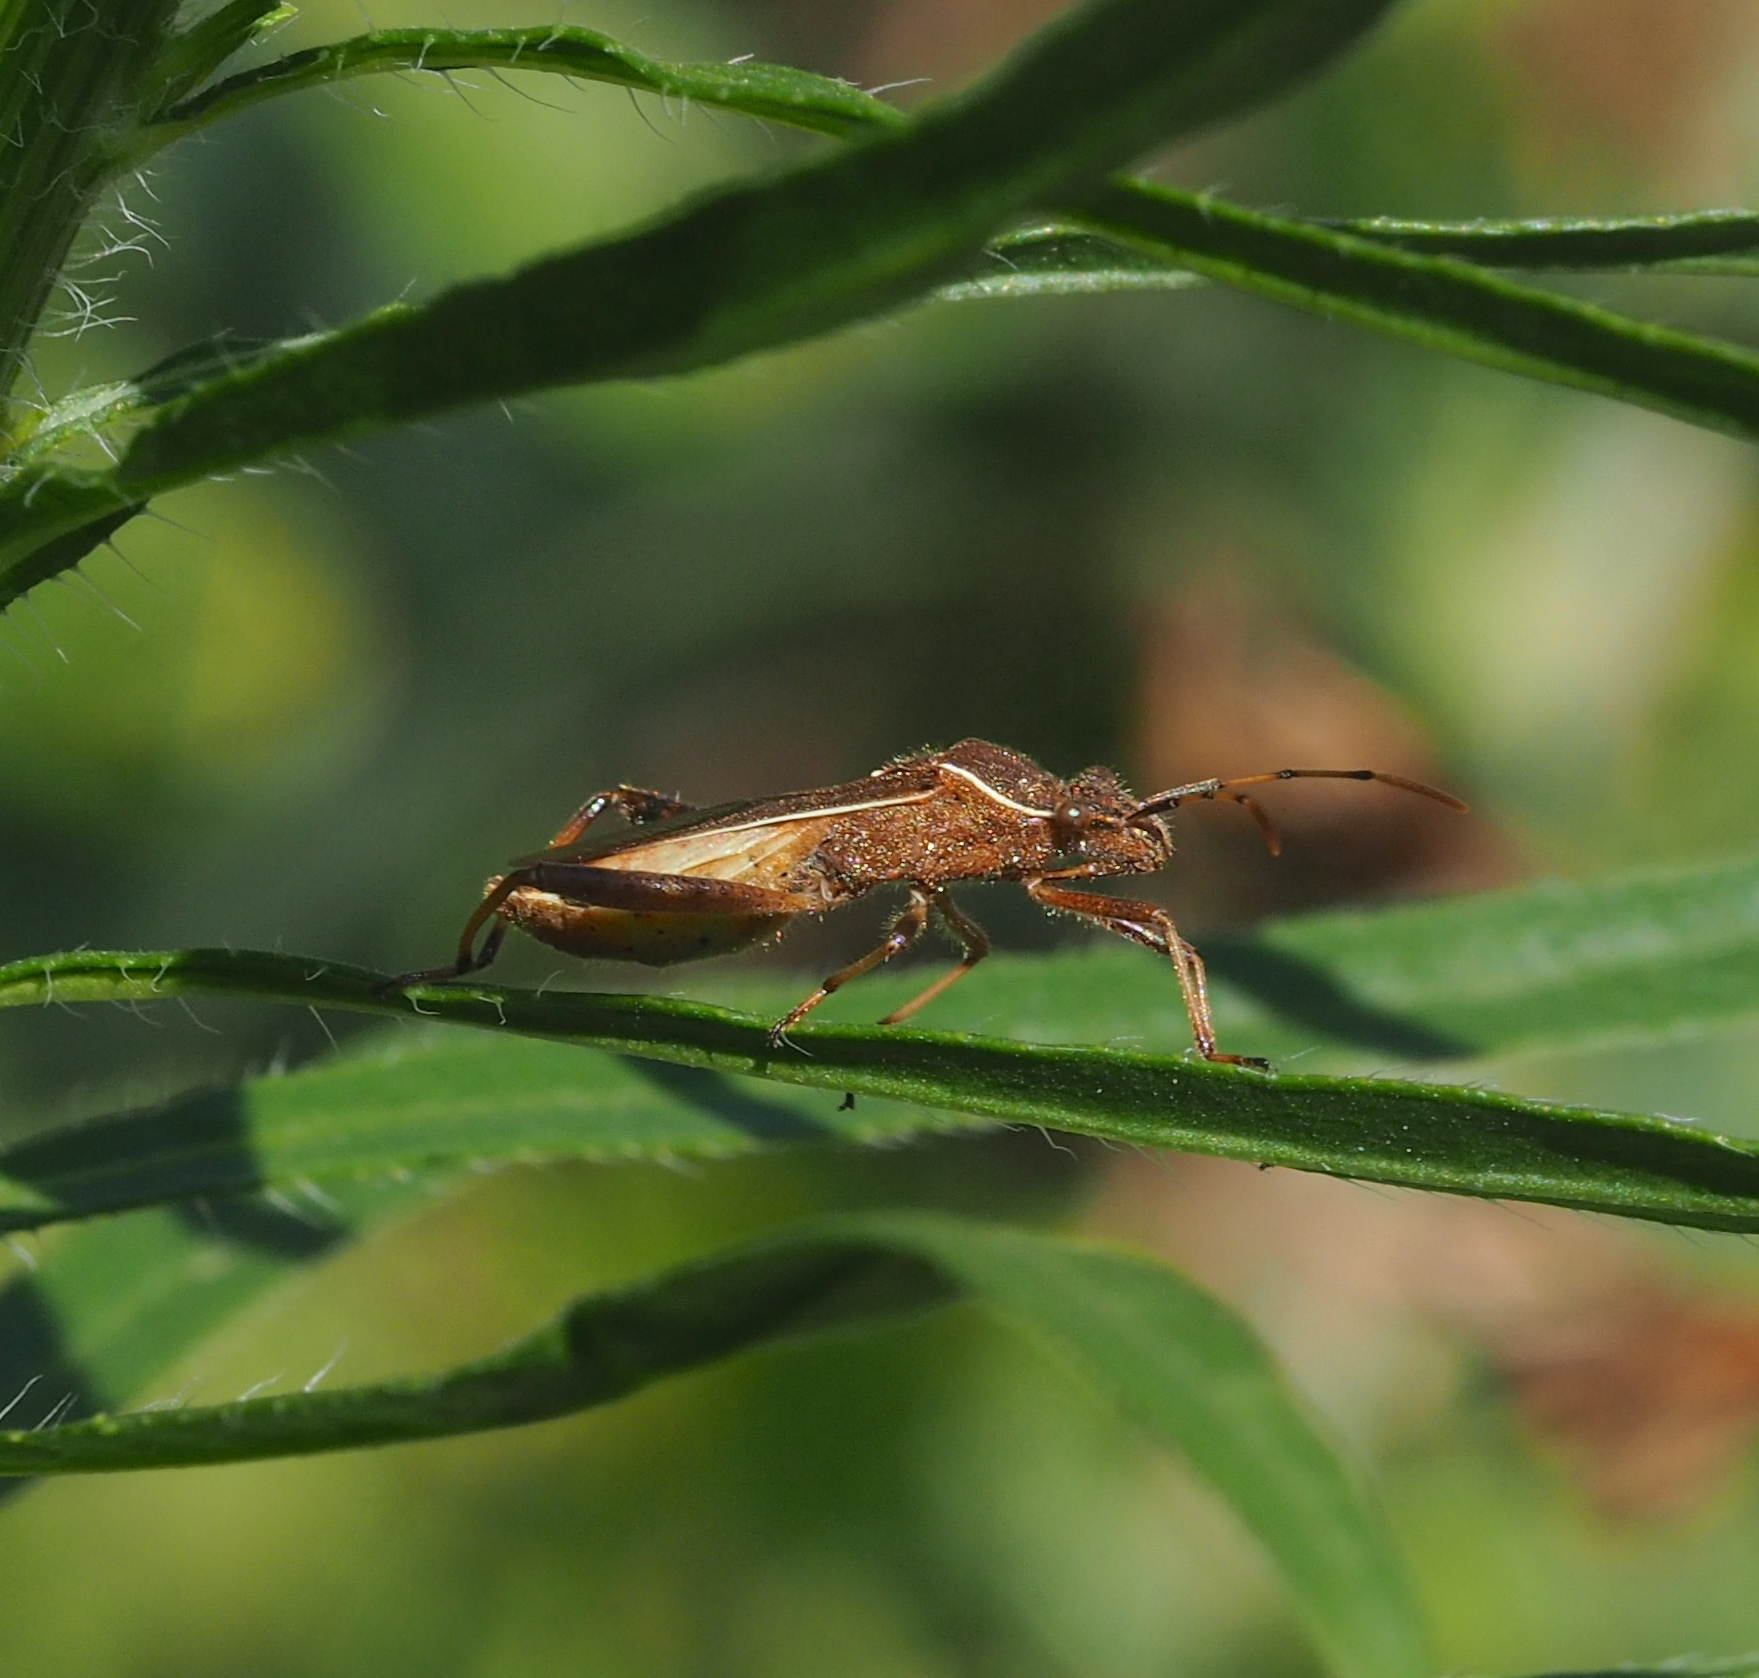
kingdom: Animalia
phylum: Arthropoda
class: Insecta
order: Hemiptera
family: Alydidae
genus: Camptopus
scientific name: Camptopus lateralis
